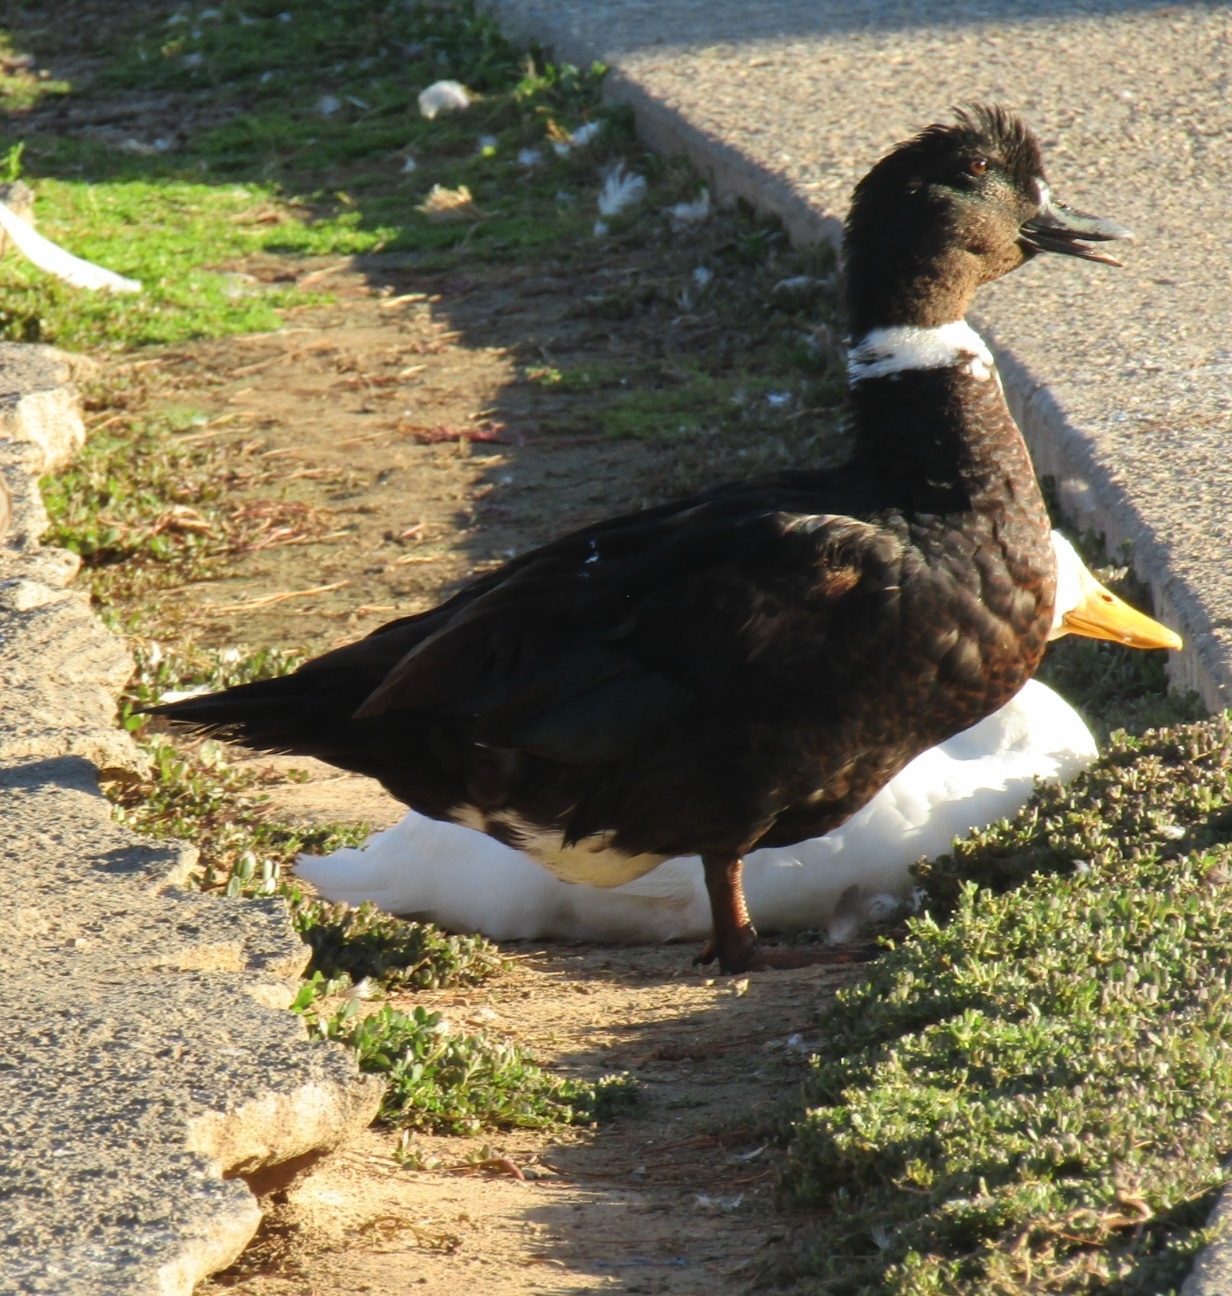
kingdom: Animalia
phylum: Chordata
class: Aves
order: Anseriformes
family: Anatidae
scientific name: Anatidae
